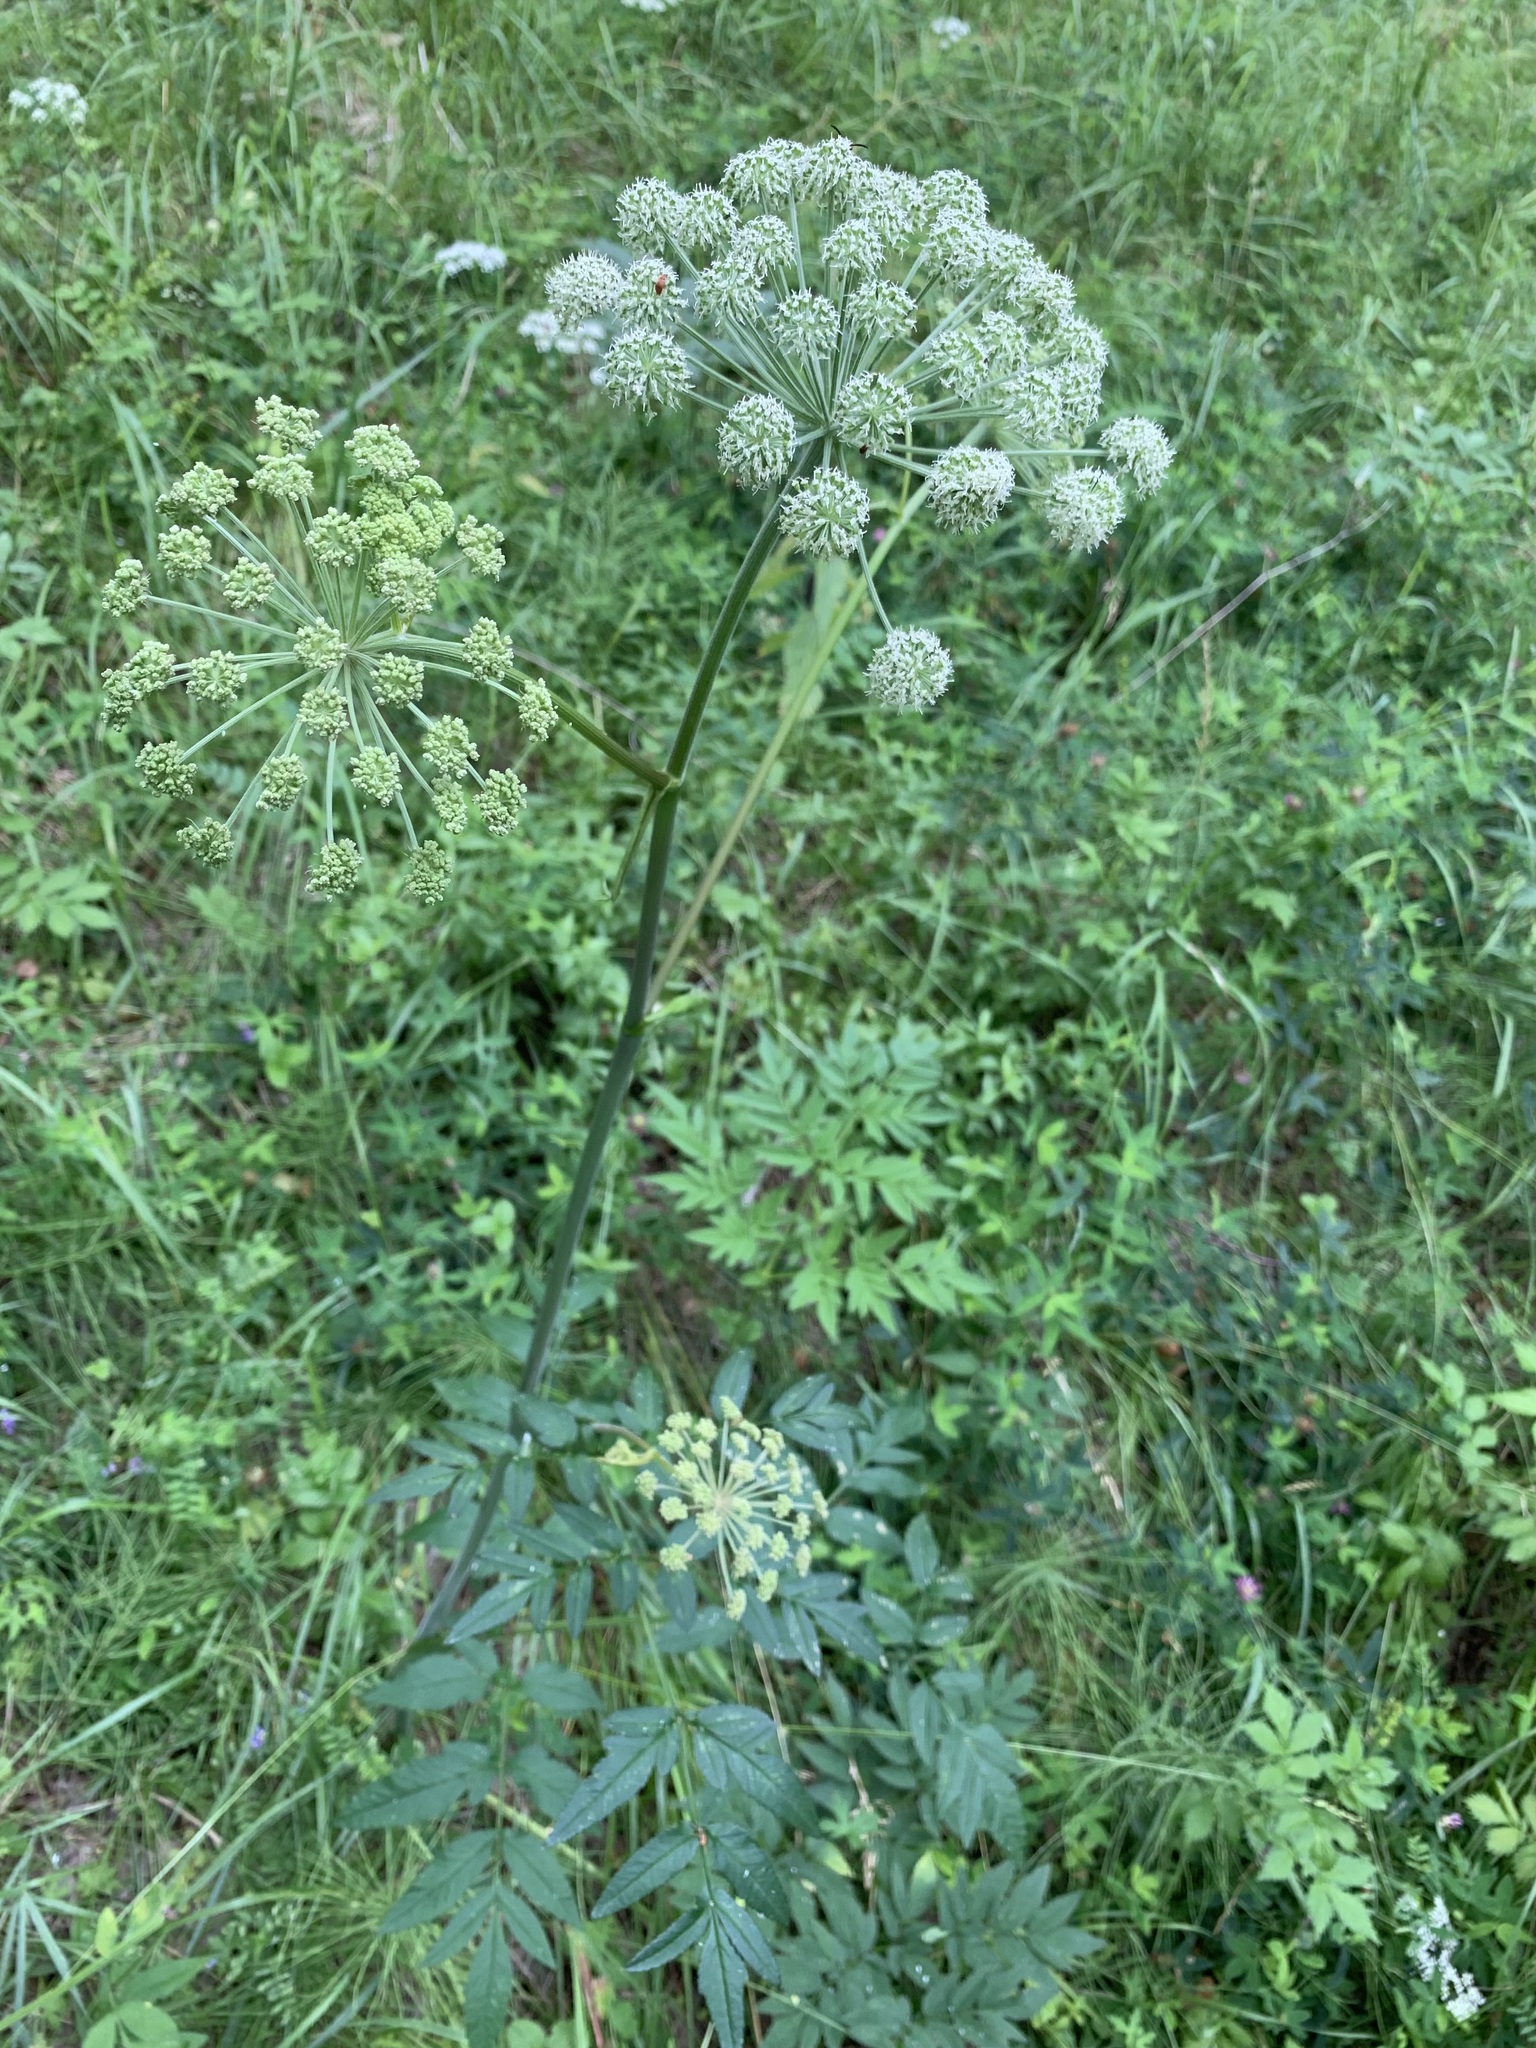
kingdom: Plantae
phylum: Tracheophyta
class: Magnoliopsida
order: Apiales
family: Apiaceae
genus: Angelica
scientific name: Angelica sylvestris
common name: Wild angelica
